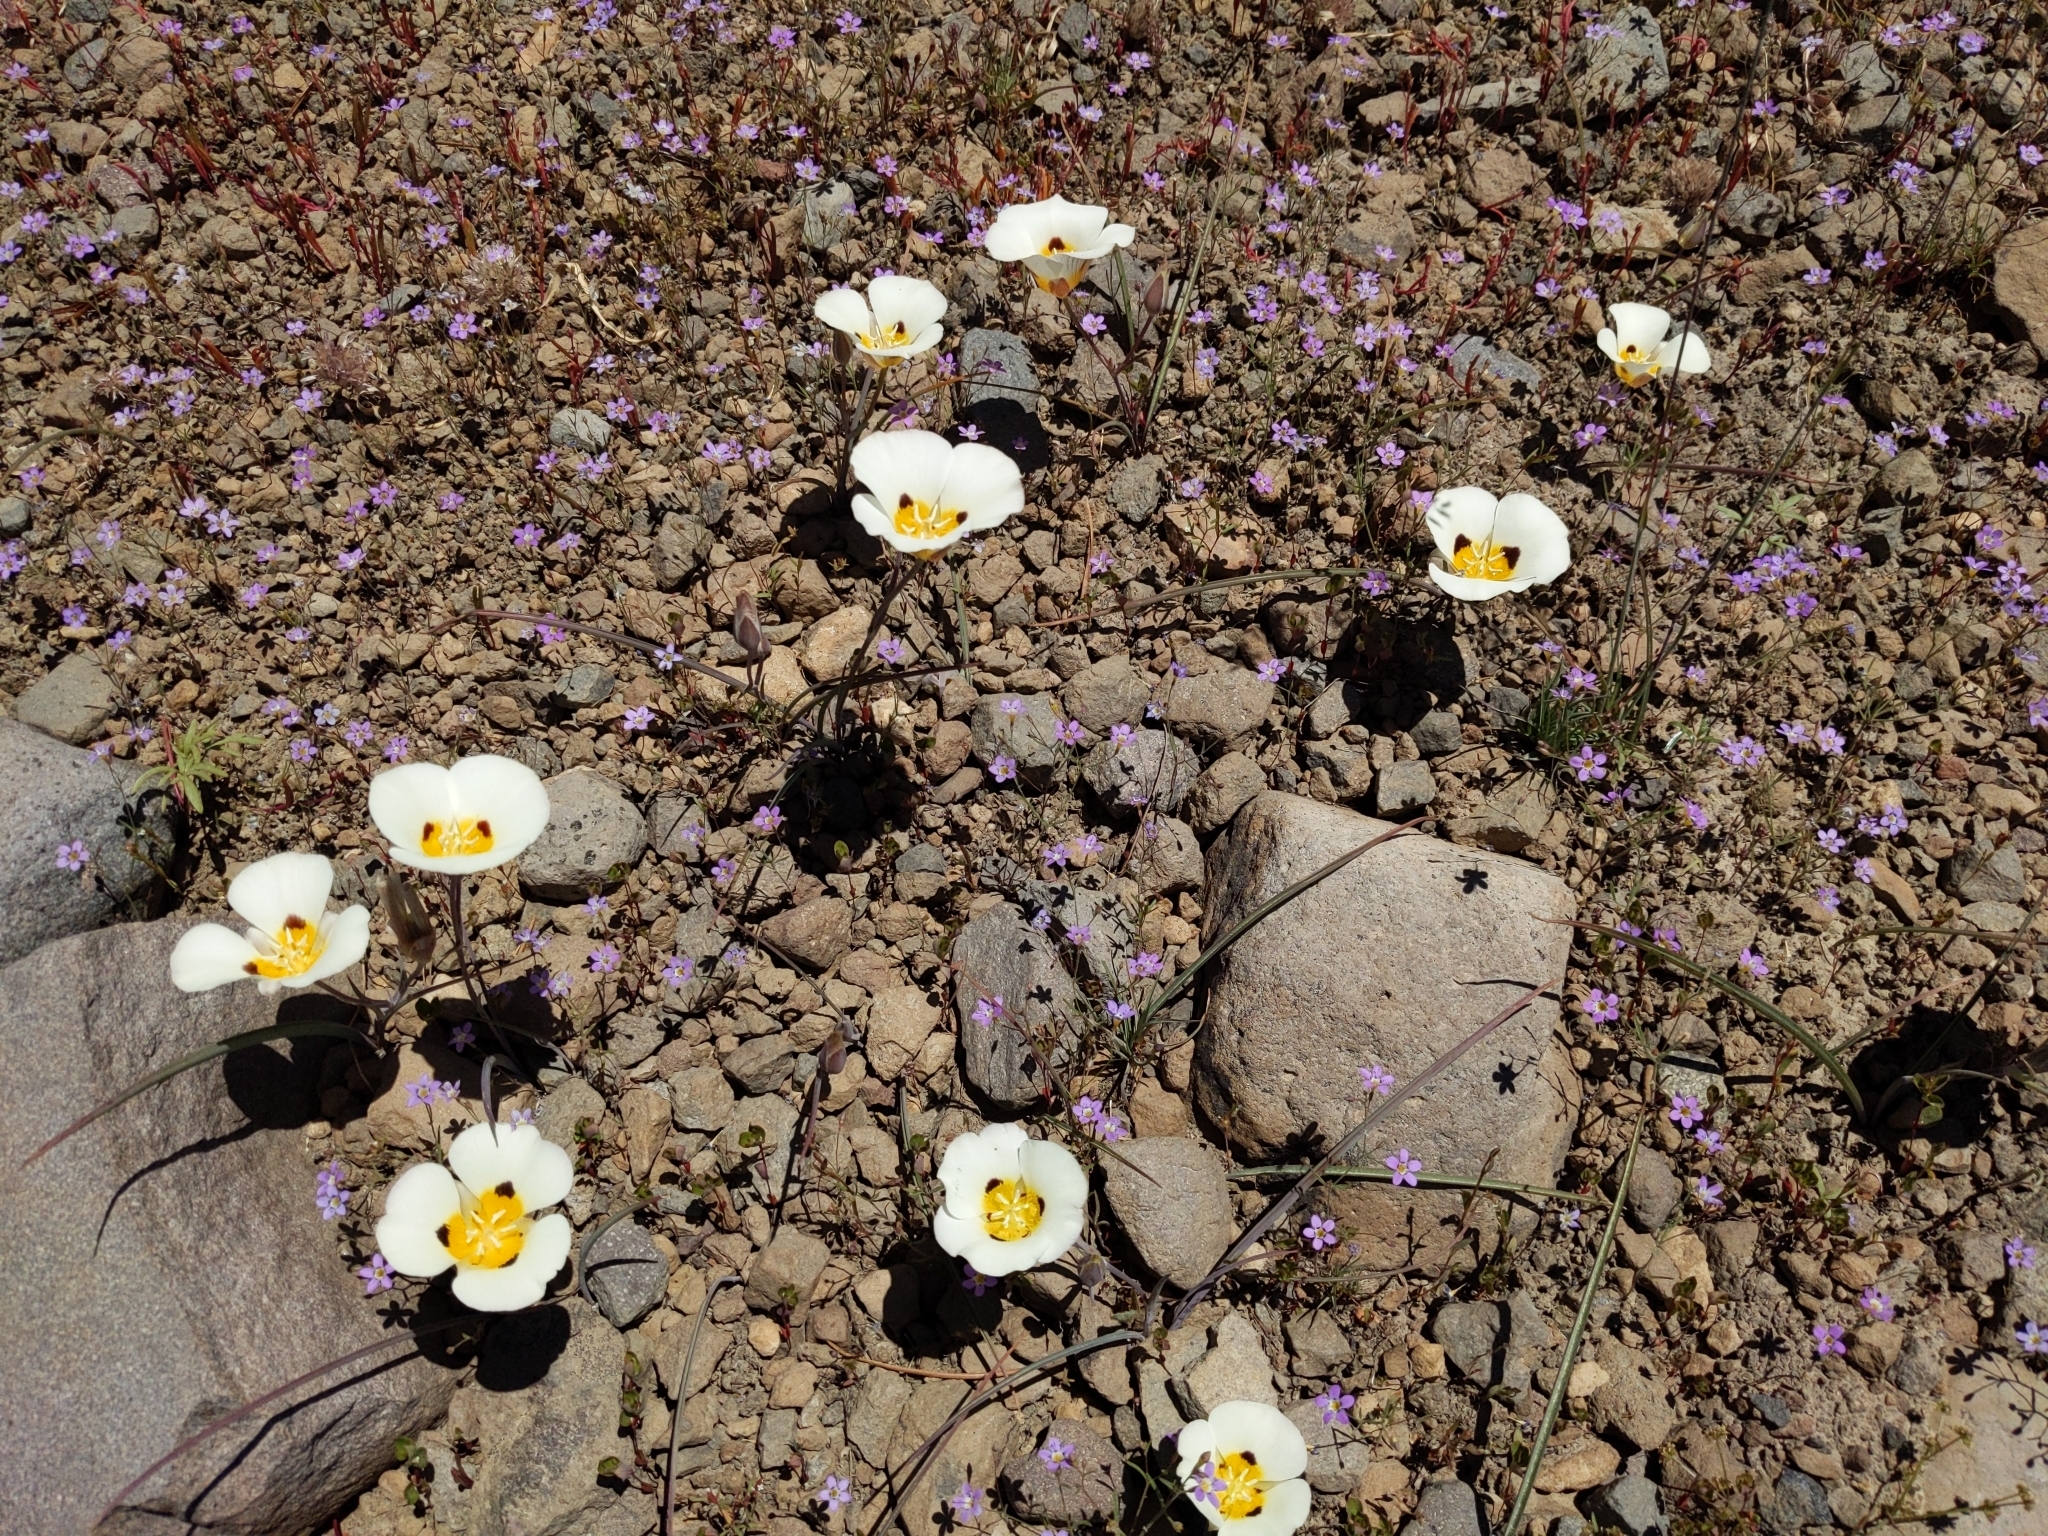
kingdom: Plantae
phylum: Tracheophyta
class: Liliopsida
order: Liliales
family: Liliaceae
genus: Calochortus
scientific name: Calochortus leichtlinii
